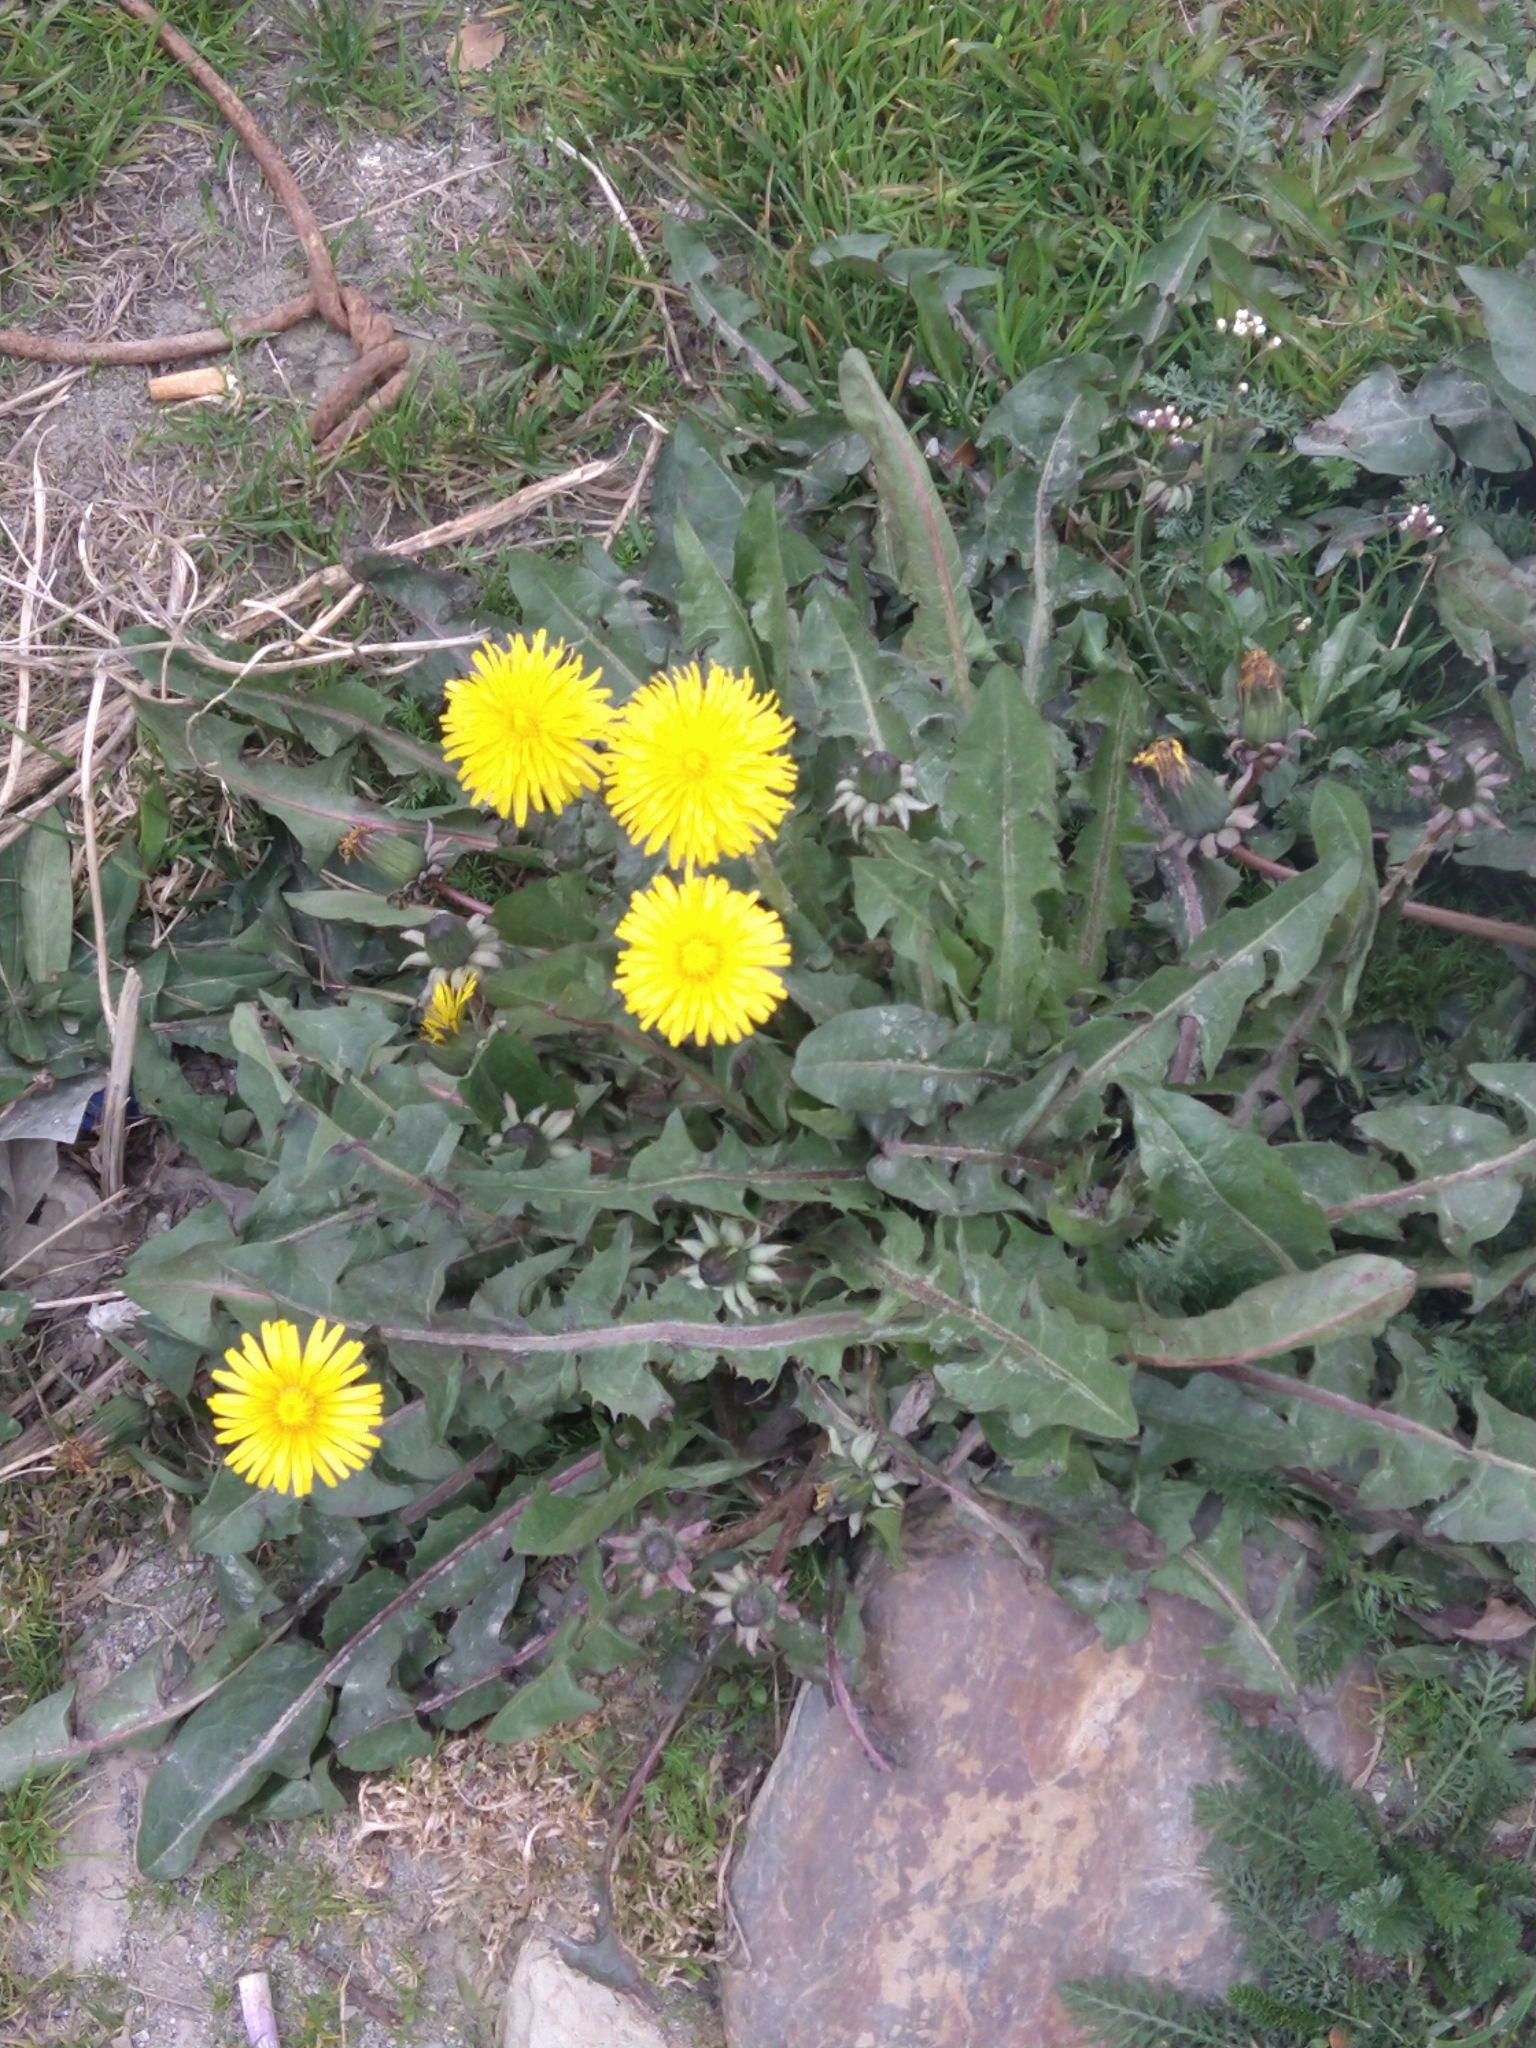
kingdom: Plantae
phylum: Tracheophyta
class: Magnoliopsida
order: Asterales
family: Asteraceae
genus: Taraxacum
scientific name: Taraxacum officinale
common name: Common dandelion
